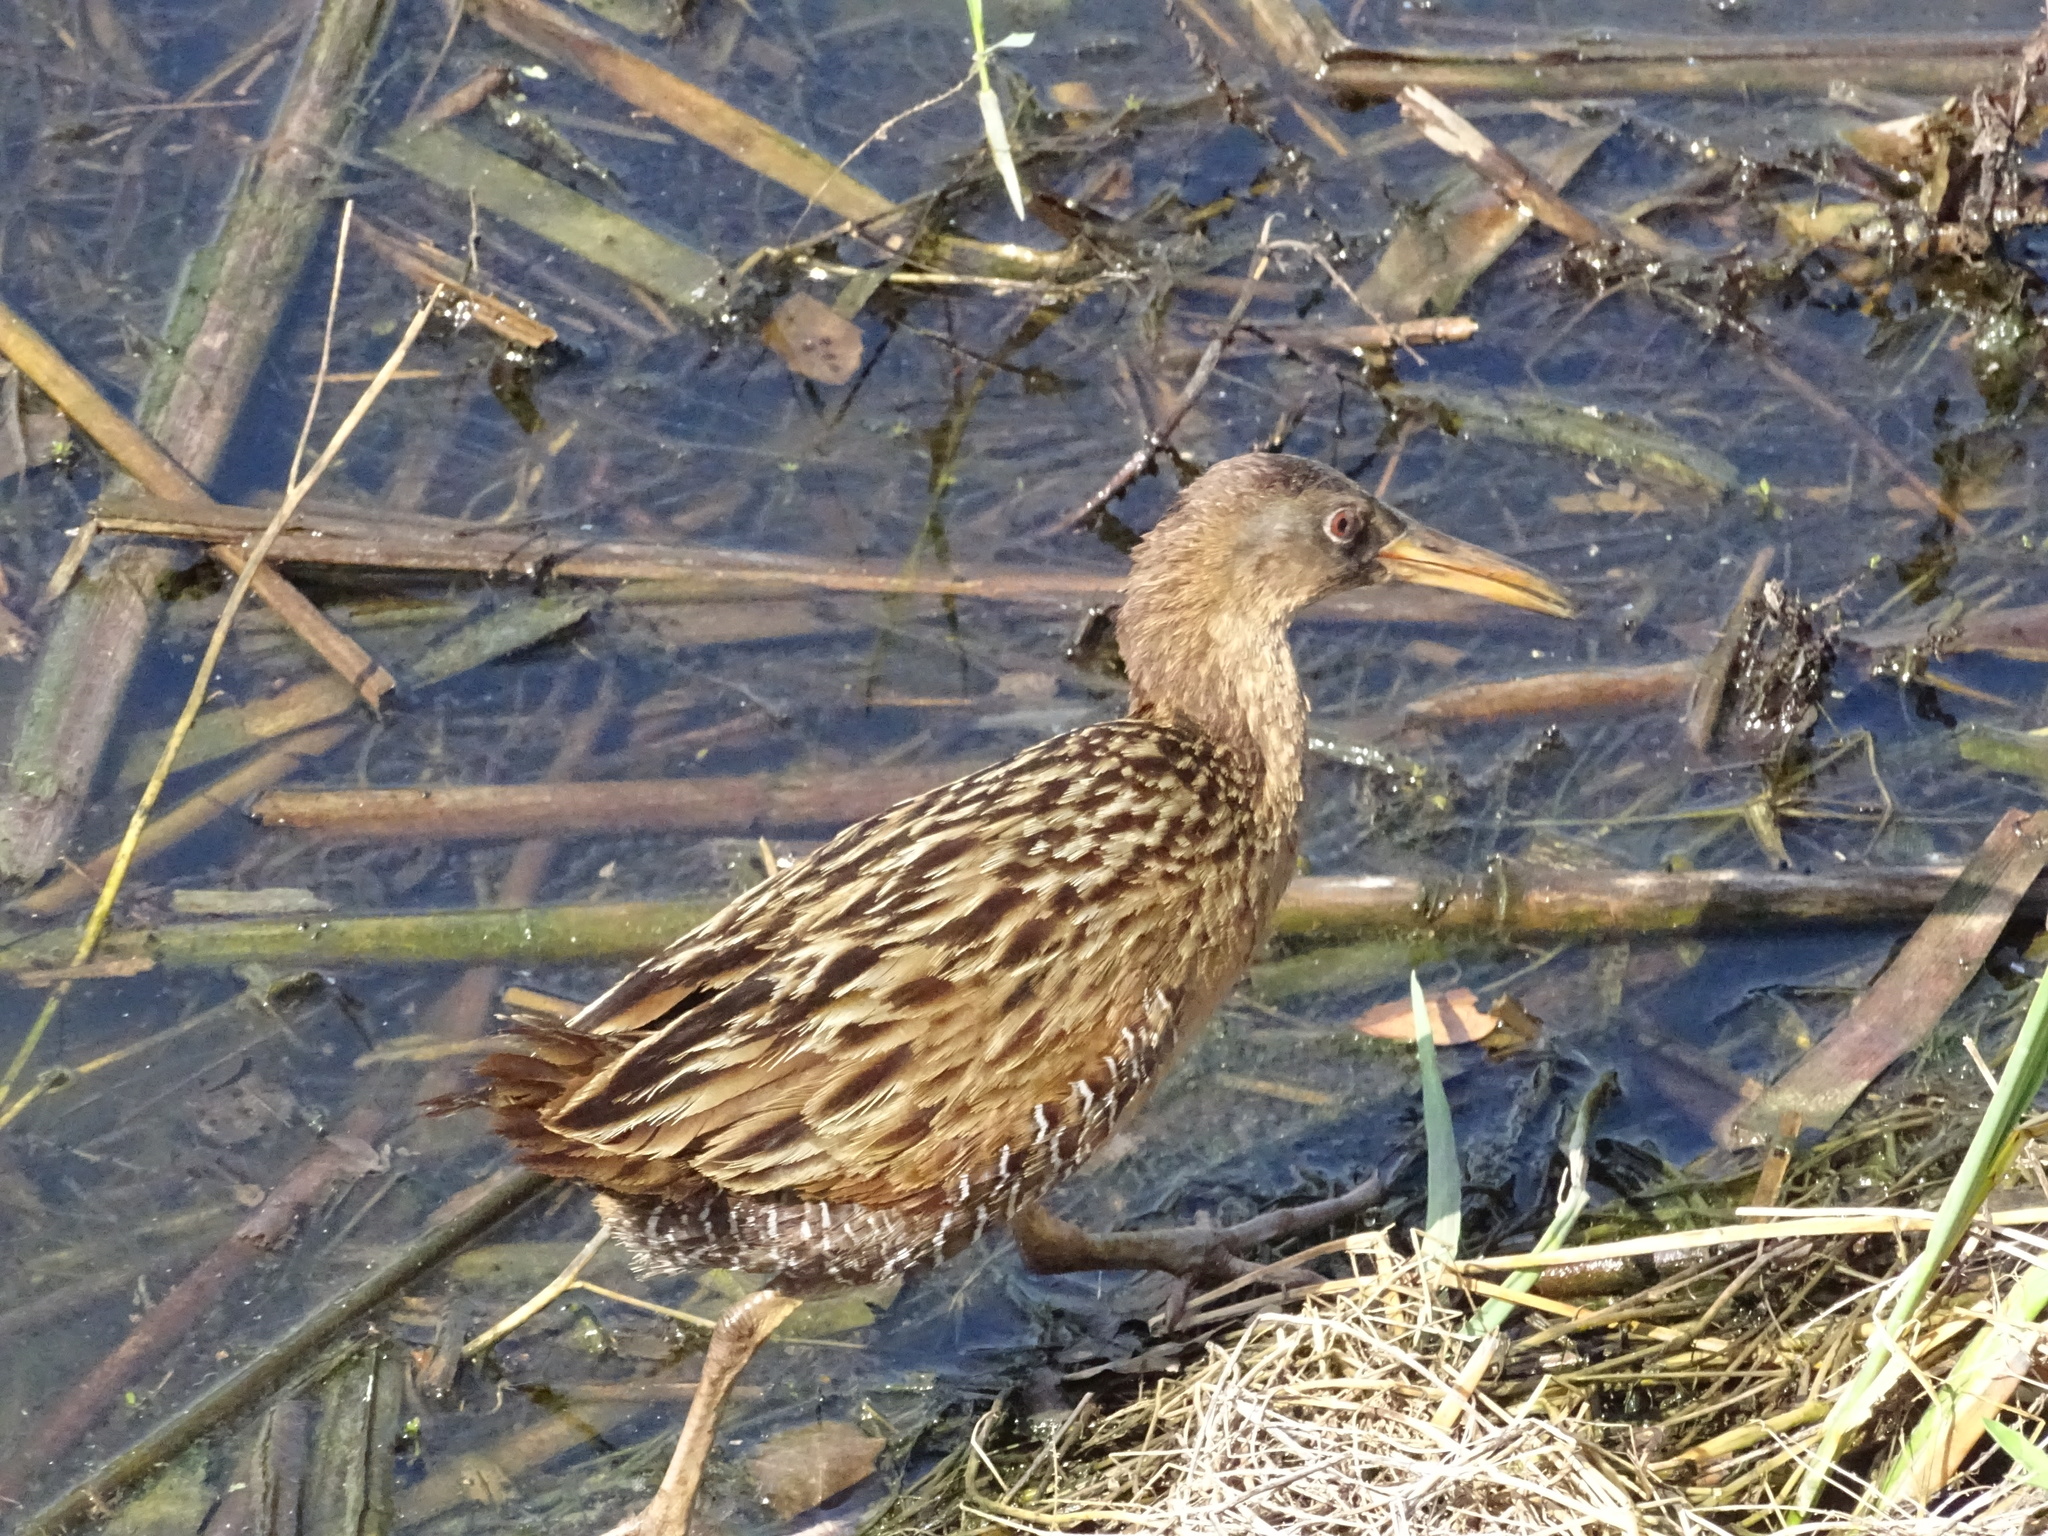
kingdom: Animalia
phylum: Chordata
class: Aves
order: Gruiformes
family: Rallidae
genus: Rallus
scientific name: Rallus crepitans
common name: Clapper rail
